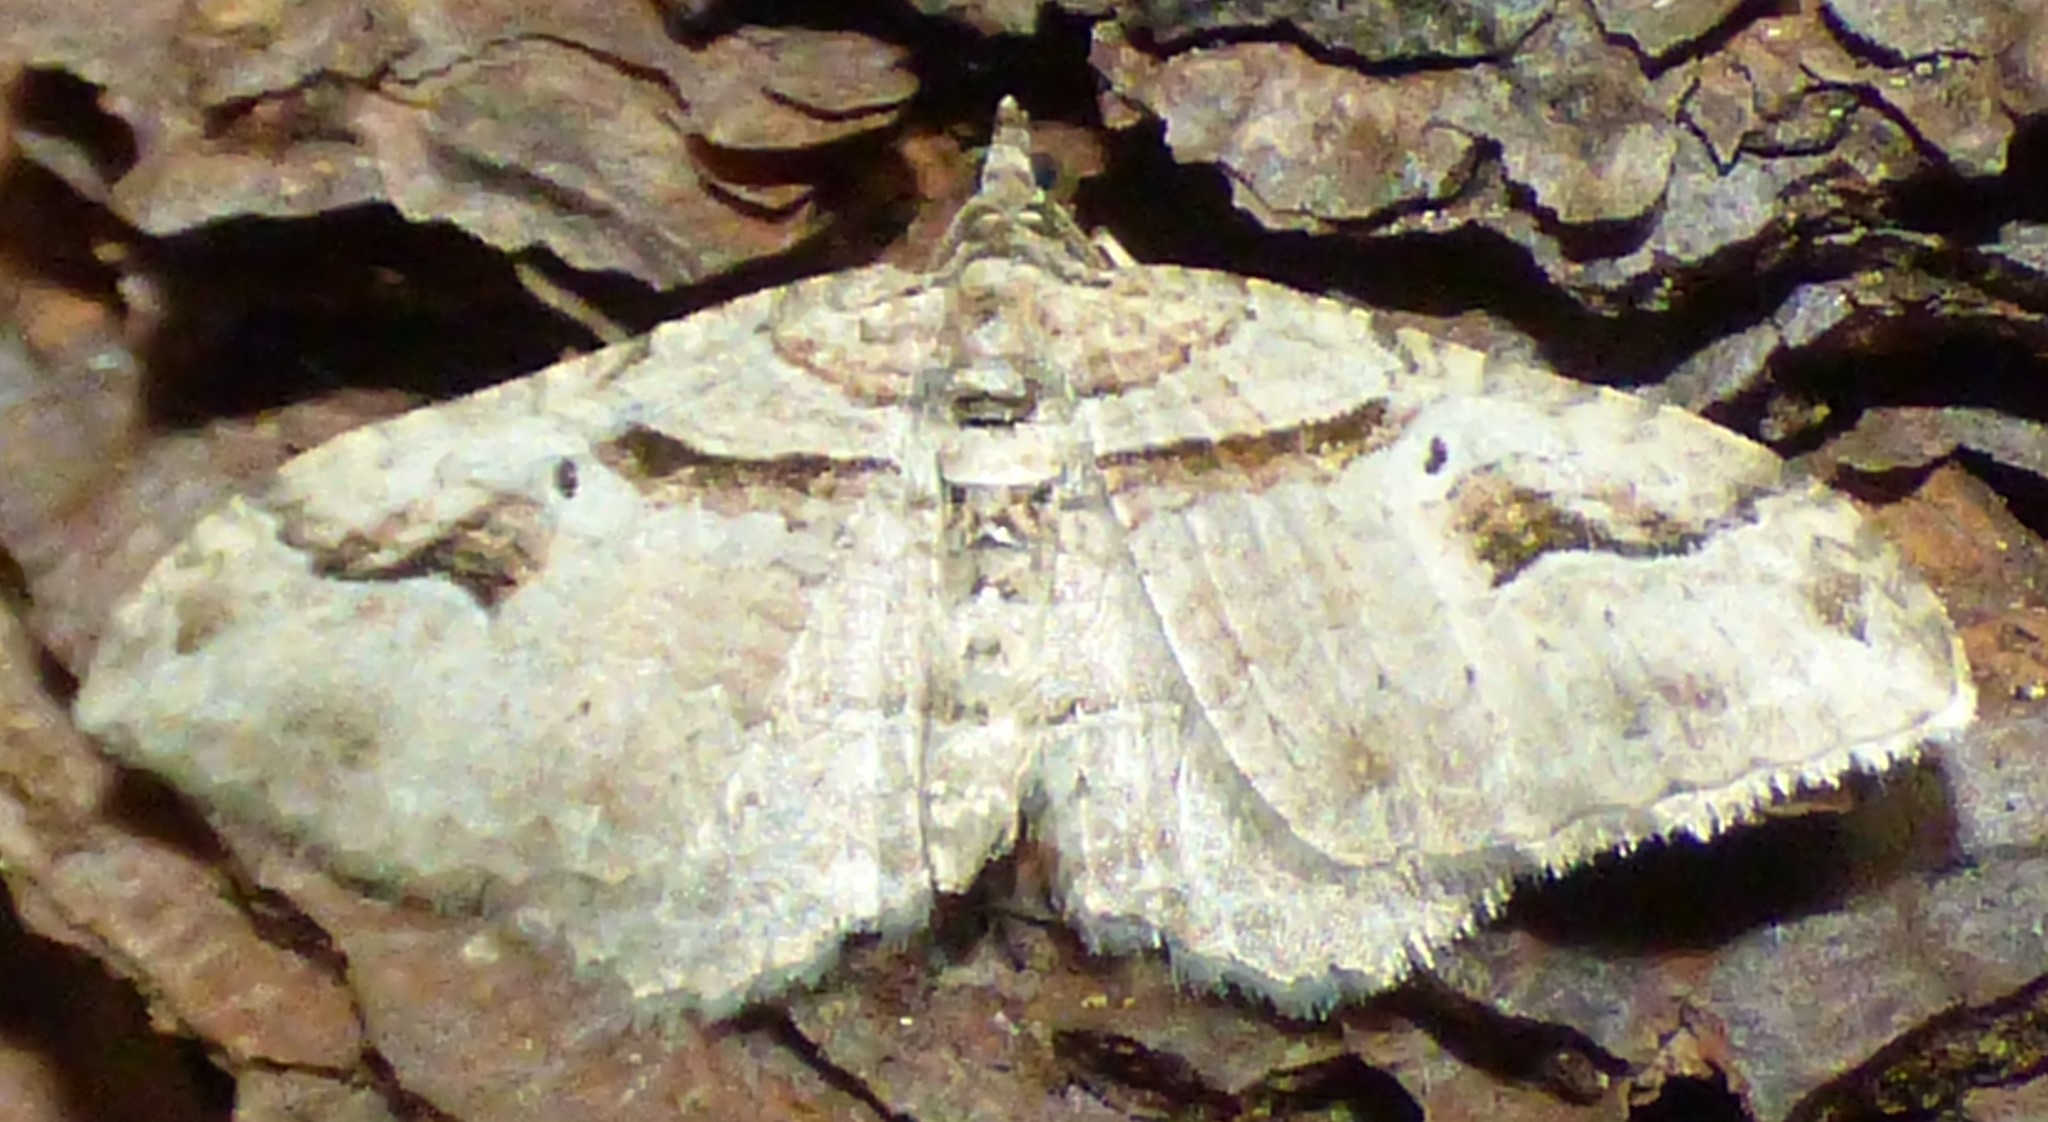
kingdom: Animalia
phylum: Arthropoda
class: Insecta
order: Lepidoptera
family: Geometridae
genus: Costaconvexa
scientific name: Costaconvexa centrostrigaria
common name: Bent-line carpet
